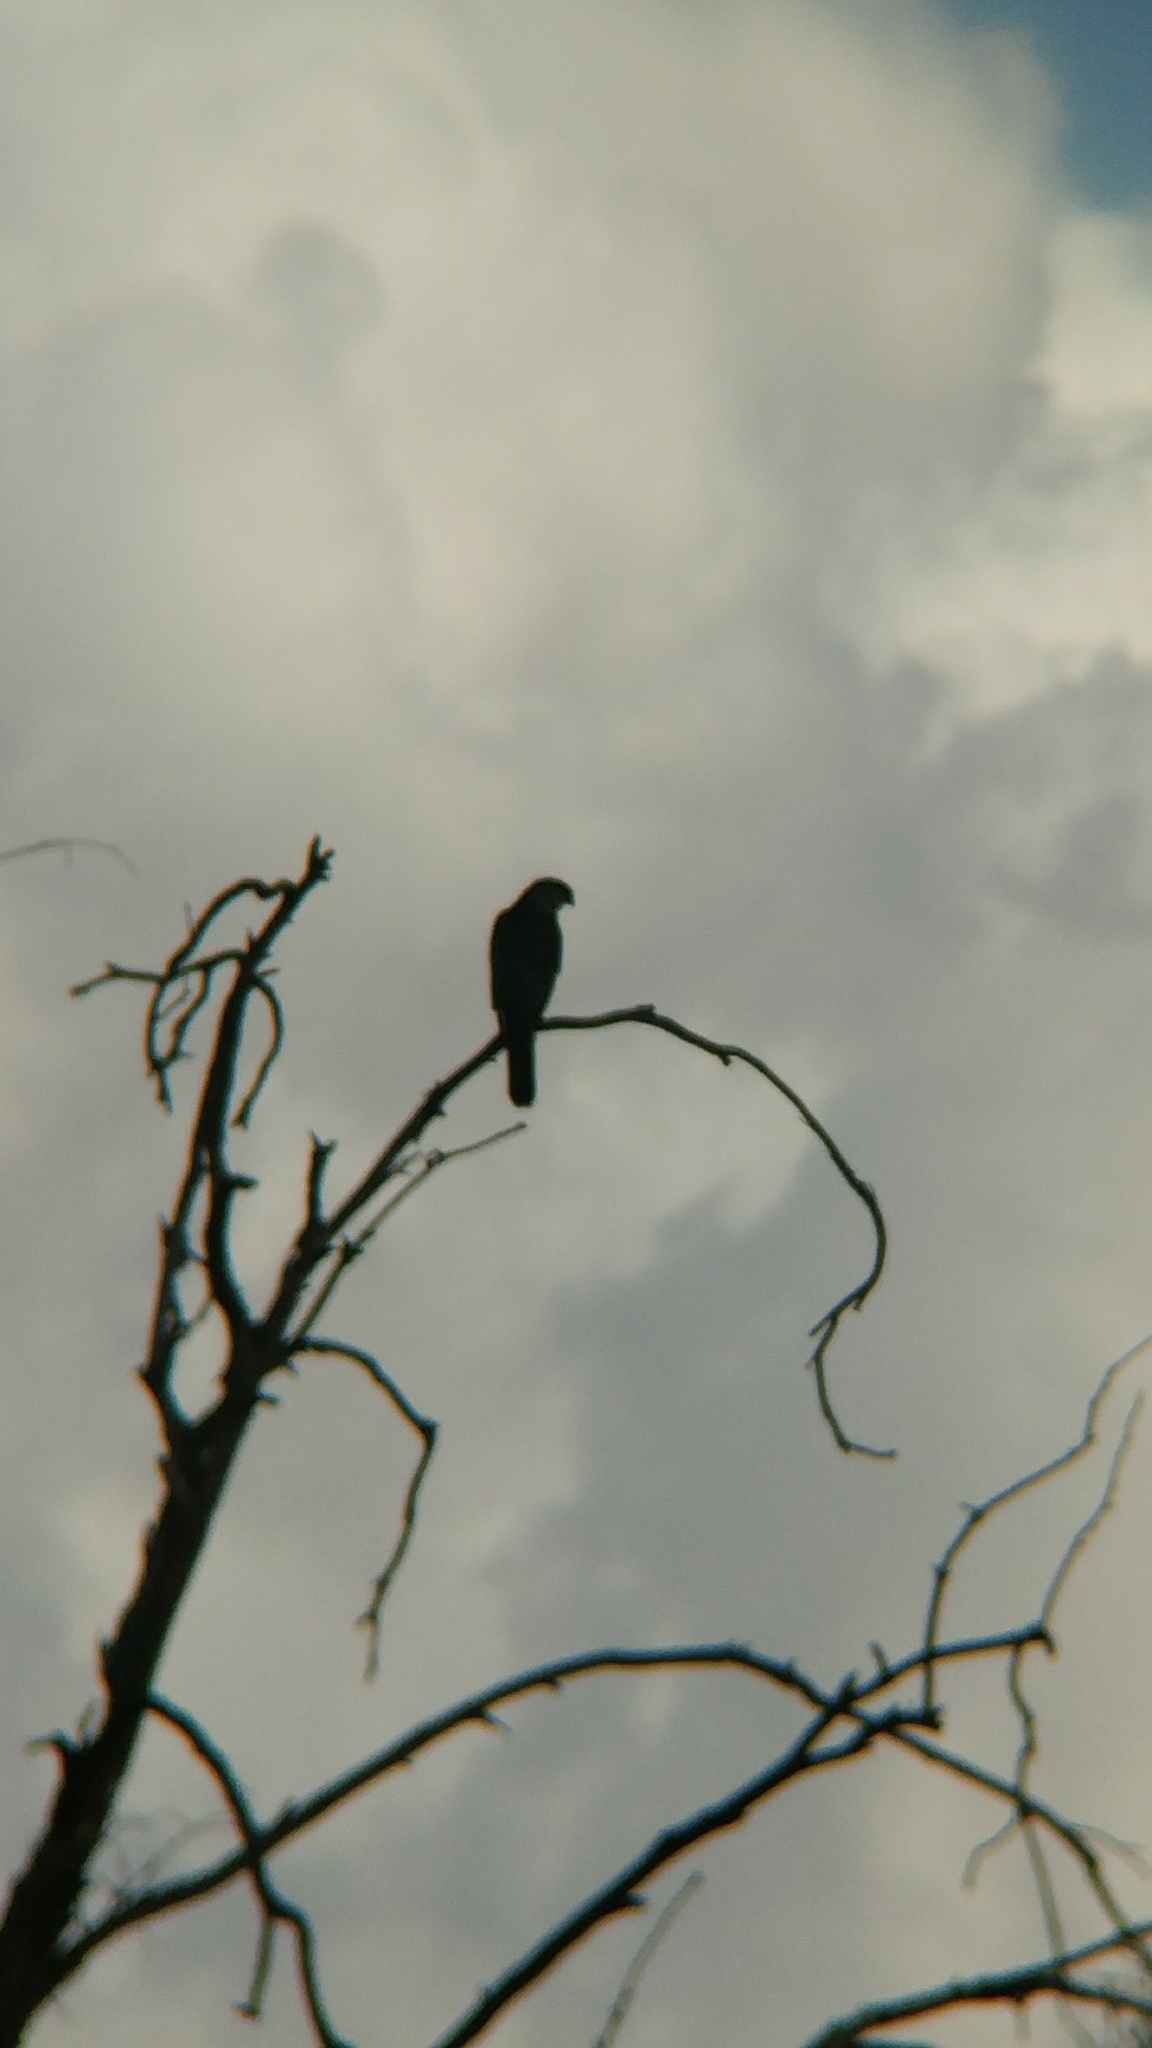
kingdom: Animalia
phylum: Chordata
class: Aves
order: Accipitriformes
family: Accipitridae
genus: Accipiter
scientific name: Accipiter cooperii
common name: Cooper's hawk
